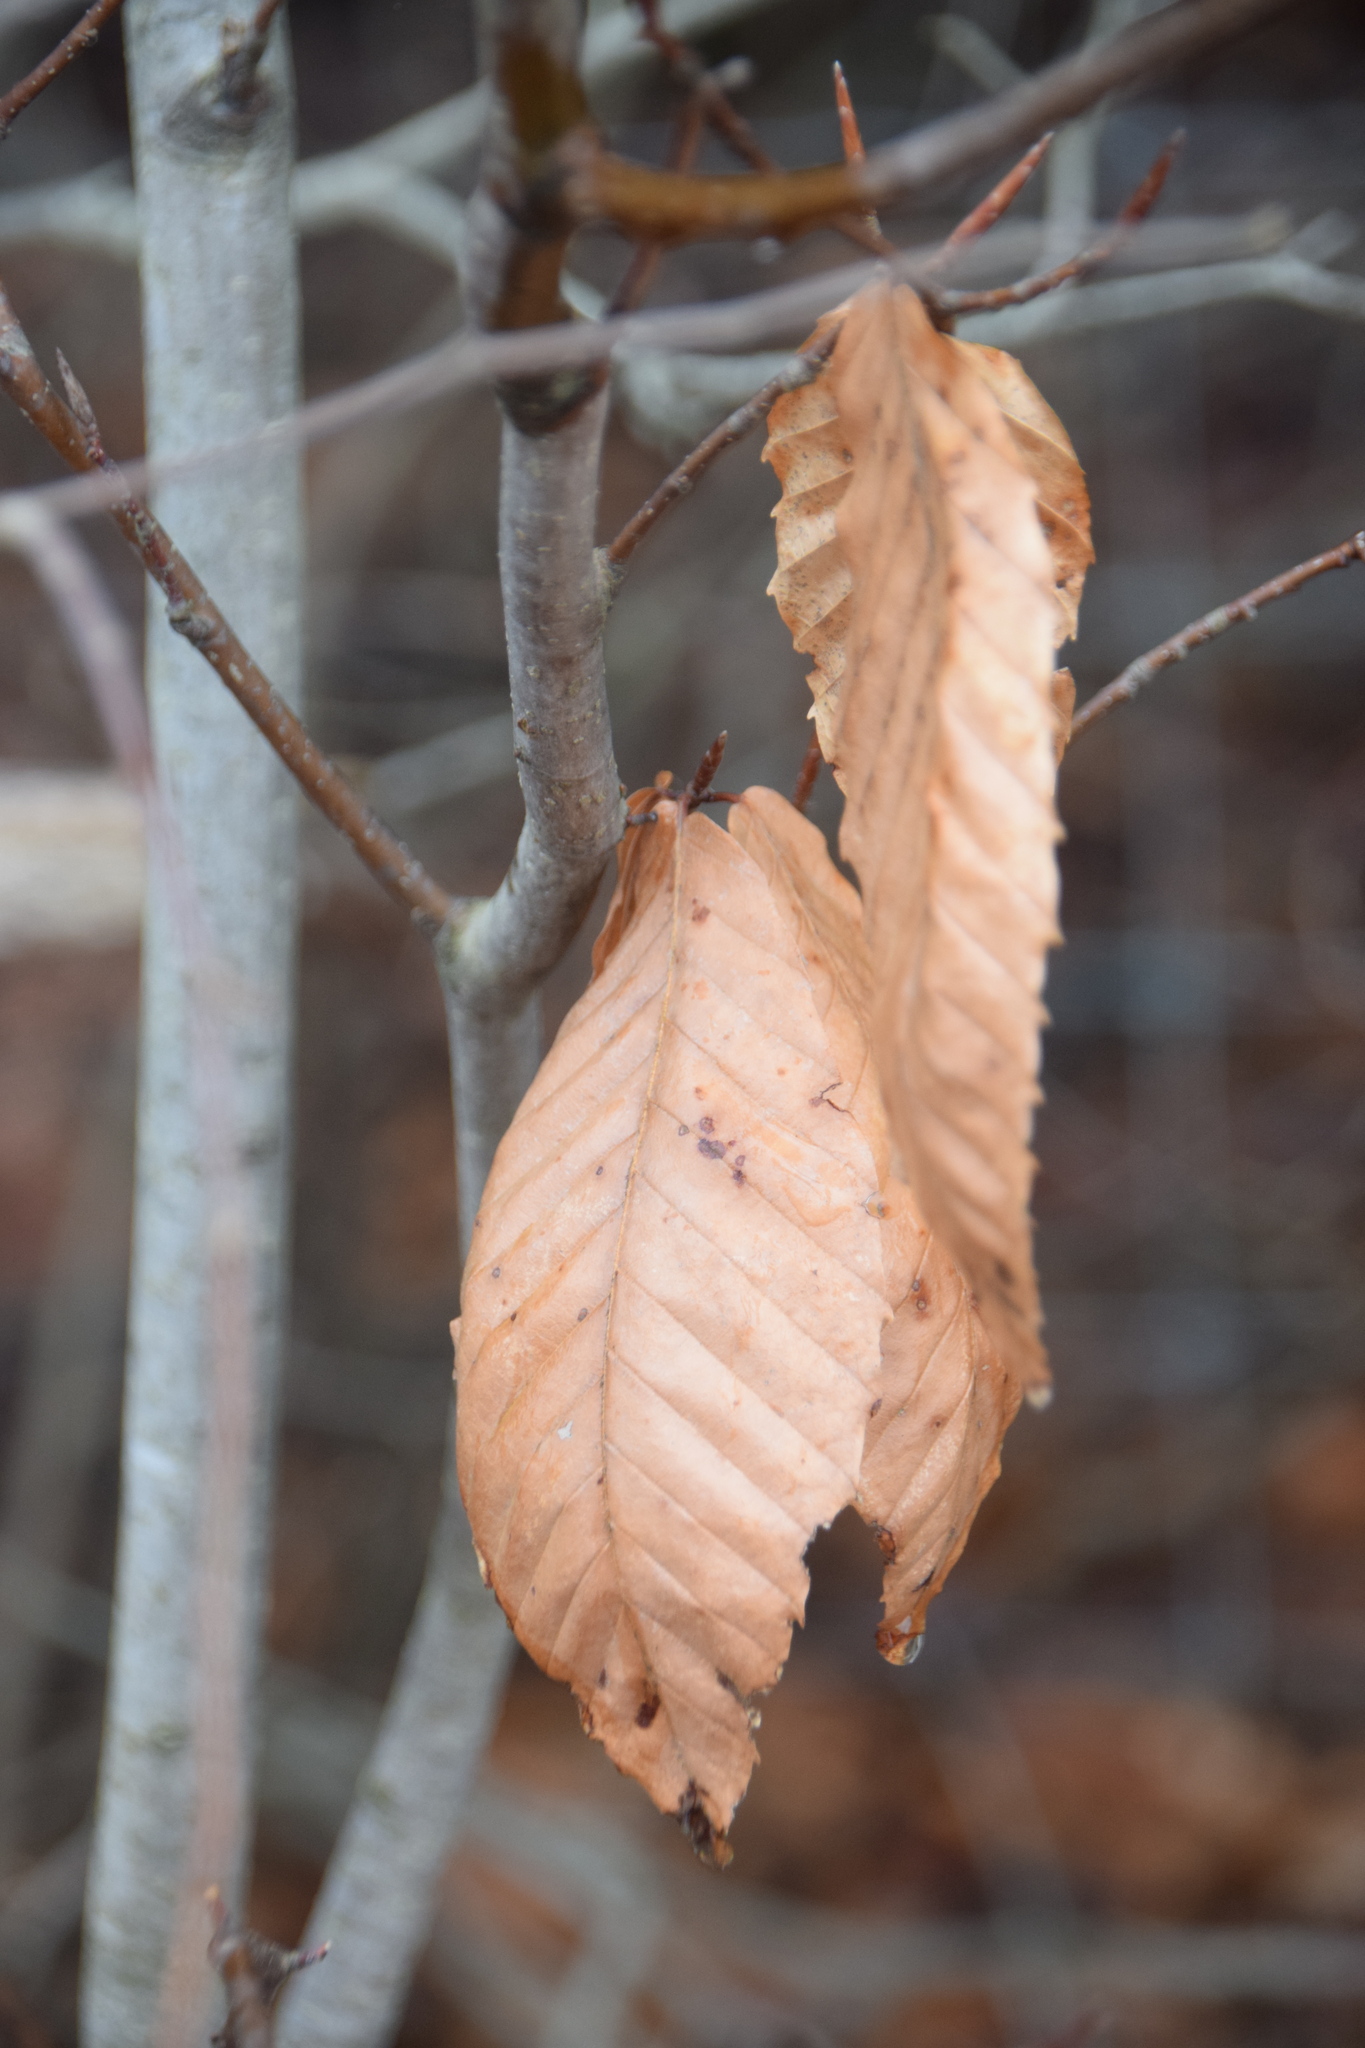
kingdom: Plantae
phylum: Tracheophyta
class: Magnoliopsida
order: Fagales
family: Fagaceae
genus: Fagus
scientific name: Fagus grandifolia
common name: American beech
